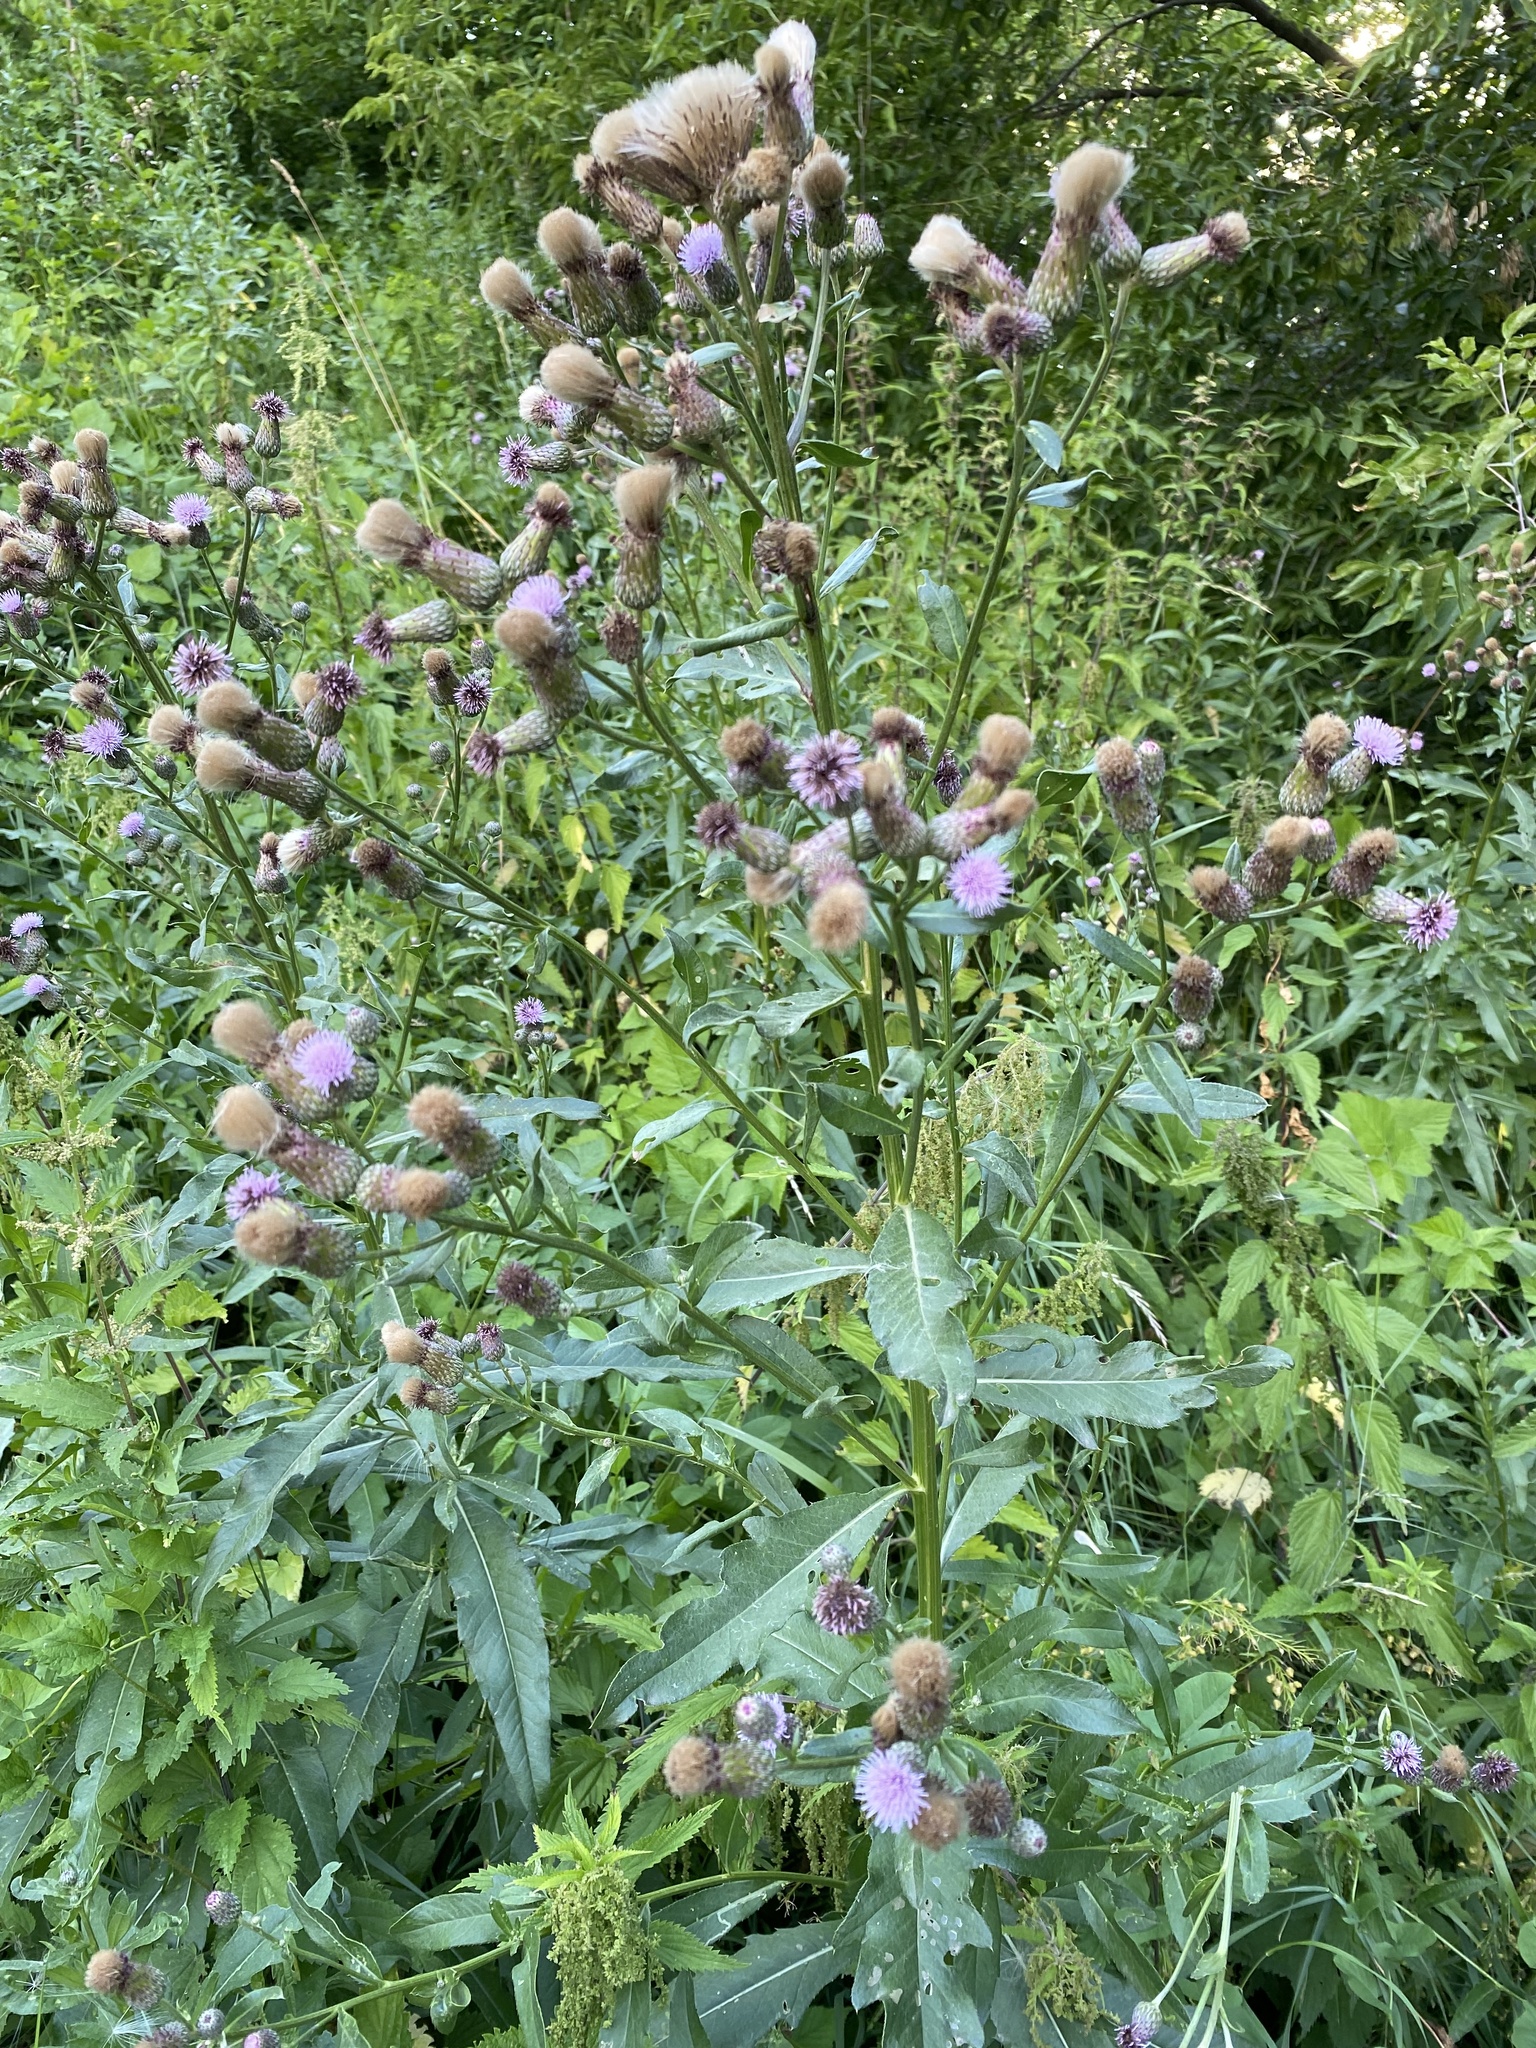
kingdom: Plantae
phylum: Tracheophyta
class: Magnoliopsida
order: Asterales
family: Asteraceae
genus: Cirsium
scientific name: Cirsium arvense
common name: Creeping thistle
